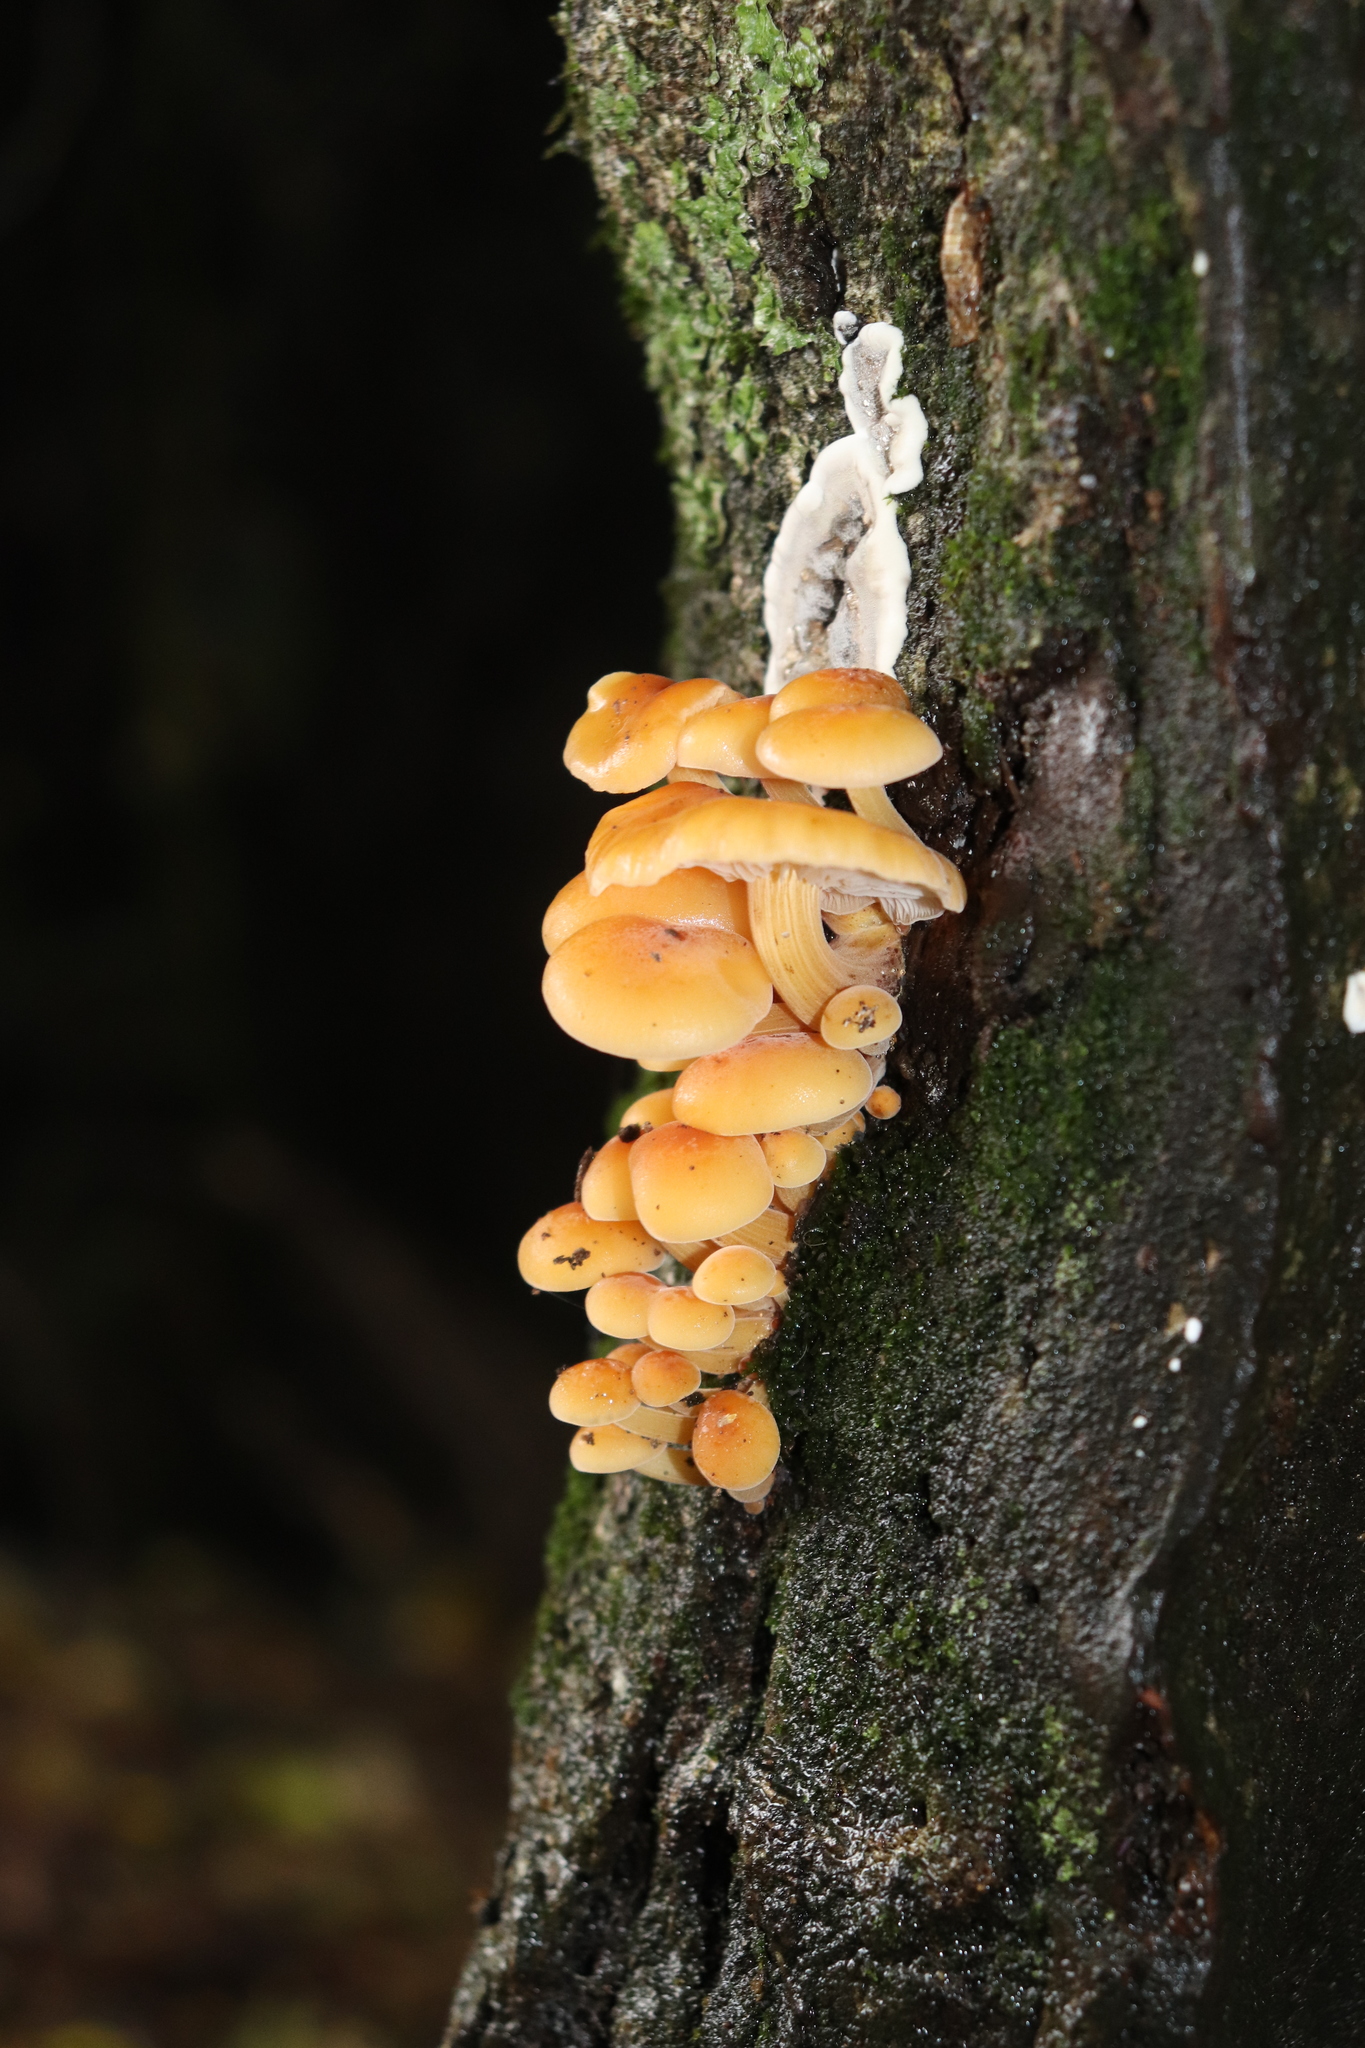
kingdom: Fungi
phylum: Basidiomycota
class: Agaricomycetes
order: Agaricales
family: Physalacriaceae
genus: Flammulina
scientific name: Flammulina velutipes
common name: Velvet shank
